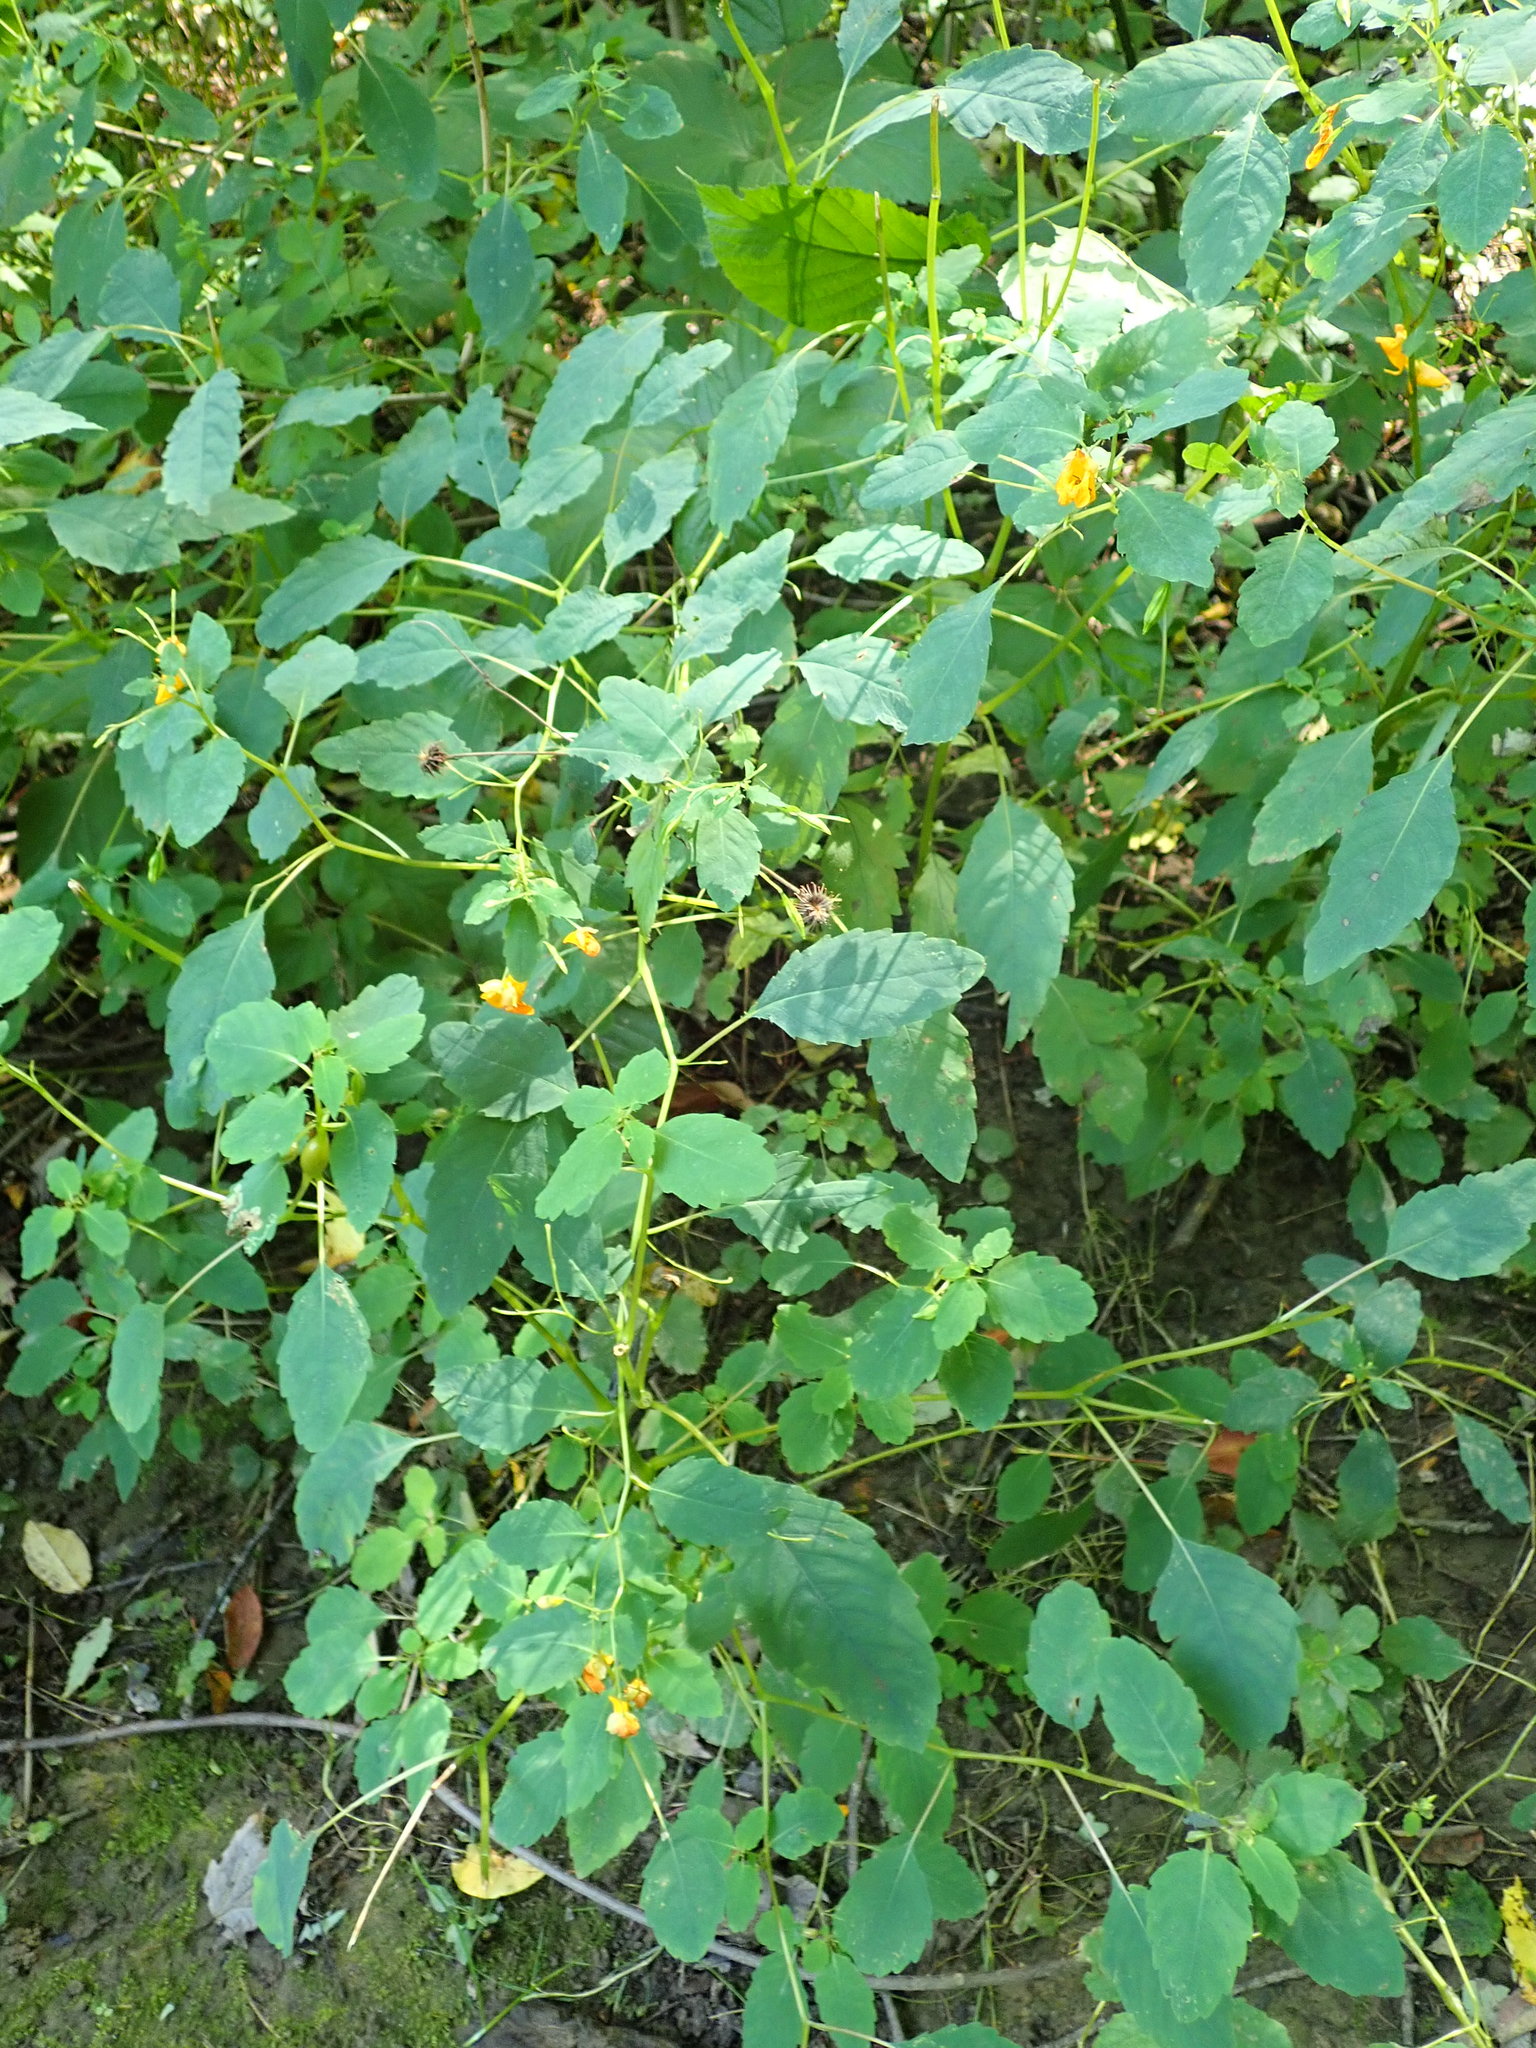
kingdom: Plantae
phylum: Tracheophyta
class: Magnoliopsida
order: Ericales
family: Balsaminaceae
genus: Impatiens
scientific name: Impatiens capensis
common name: Orange balsam
